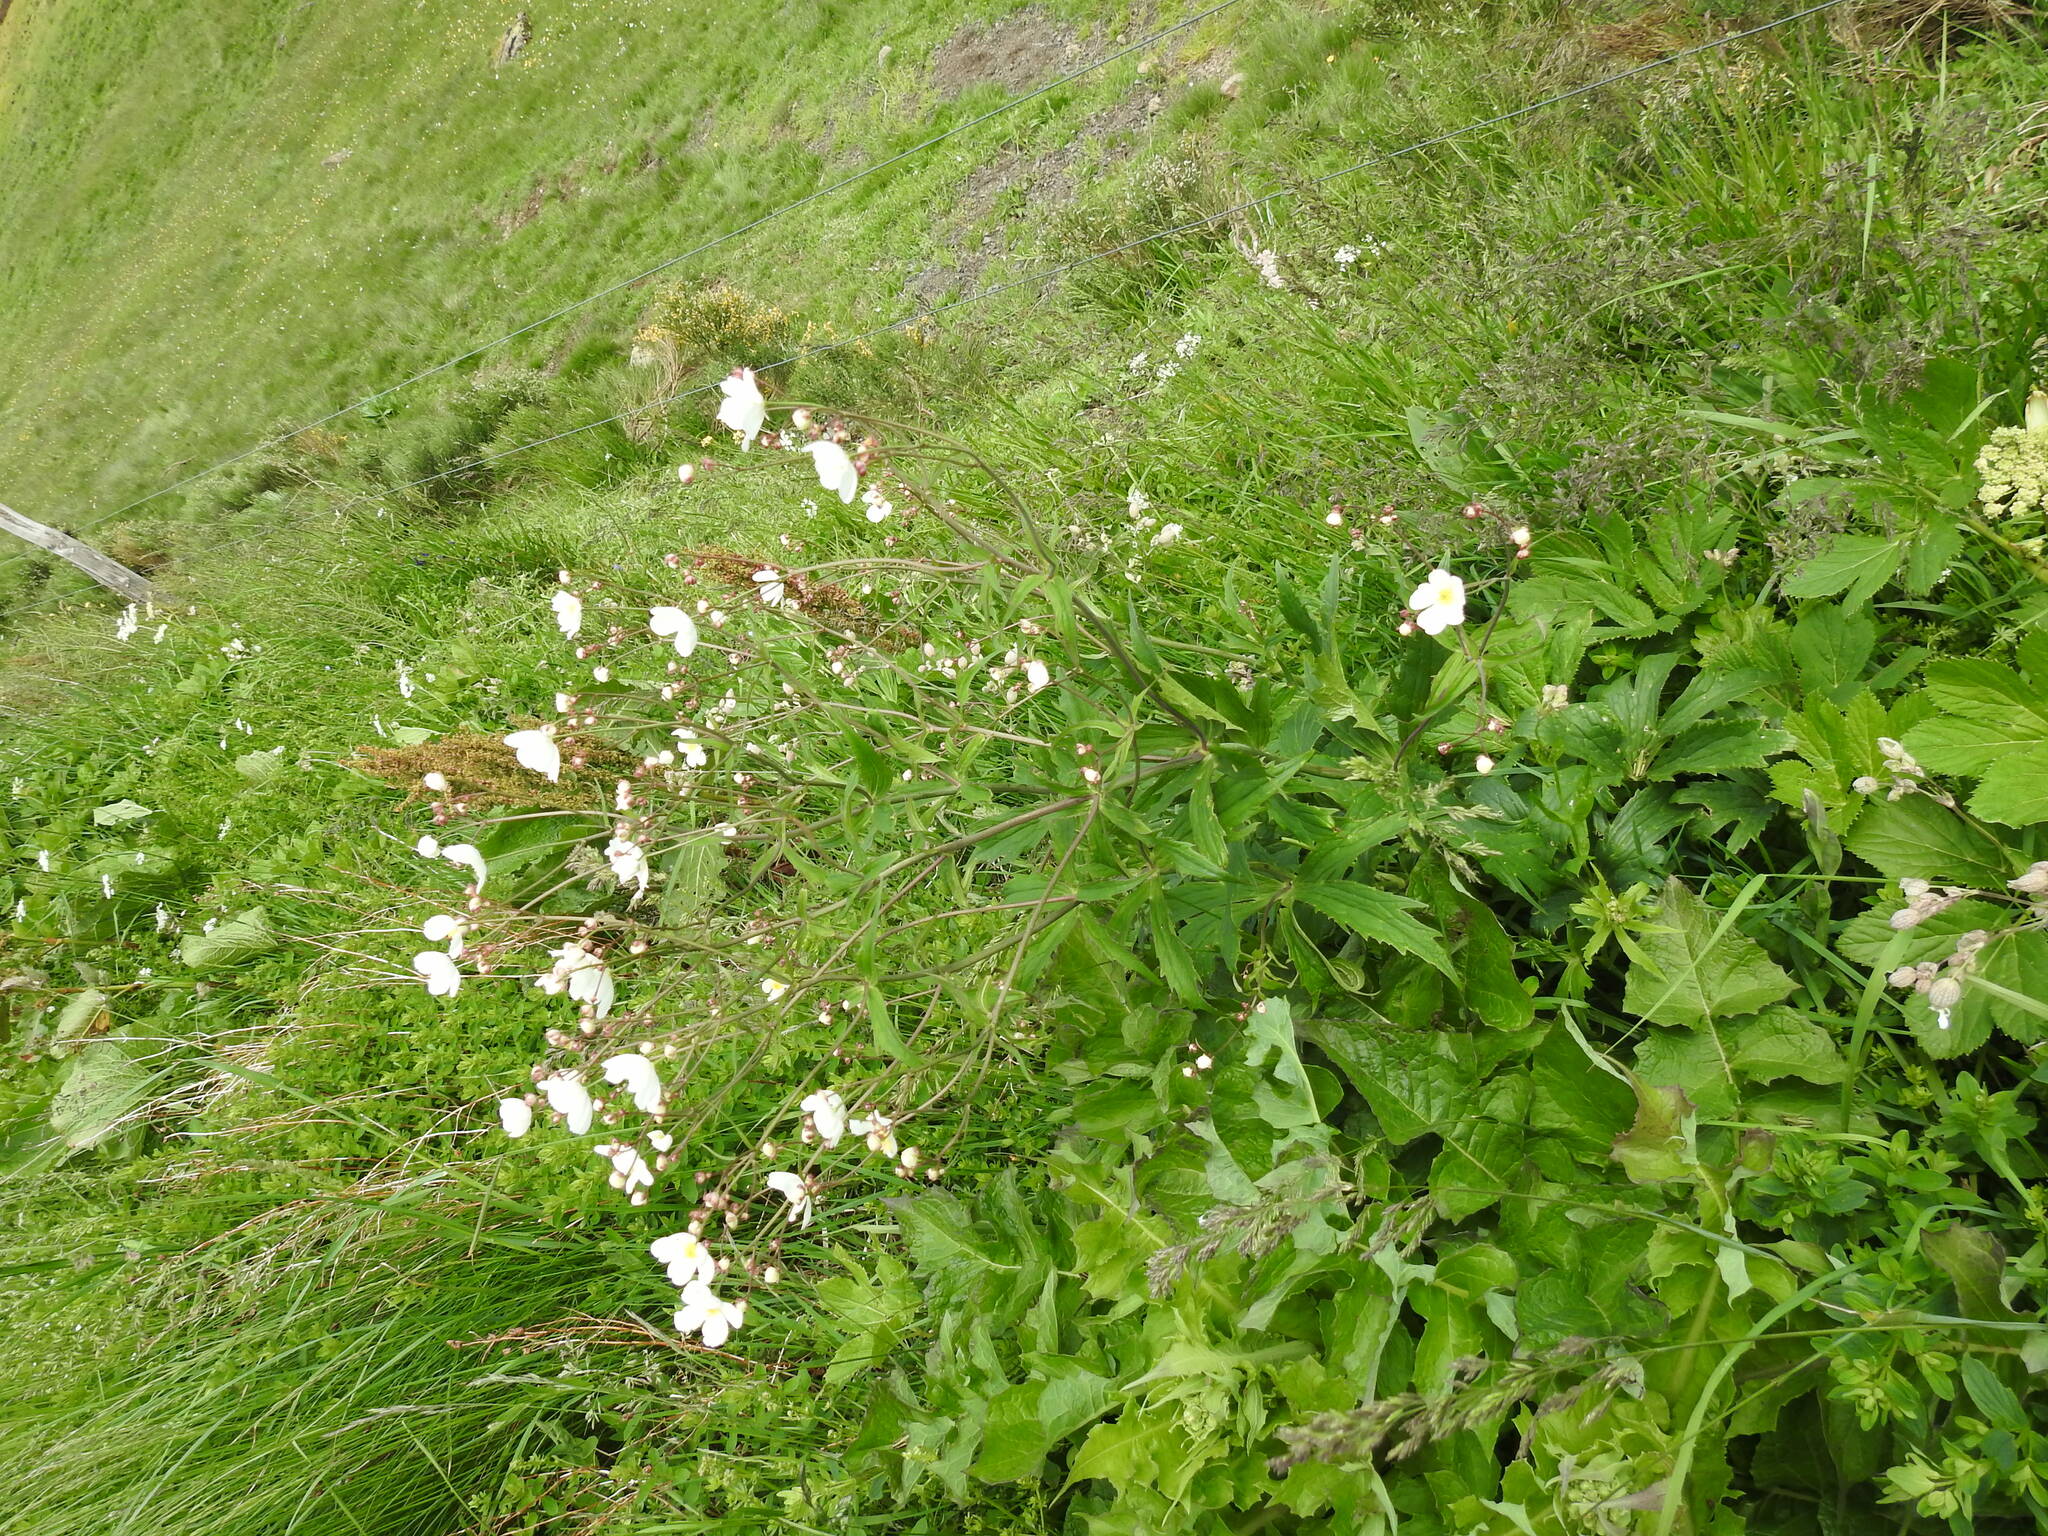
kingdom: Plantae
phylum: Tracheophyta
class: Magnoliopsida
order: Ranunculales
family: Ranunculaceae
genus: Ranunculus
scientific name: Ranunculus aconitifolius
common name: Aconite-leaved buttercup
